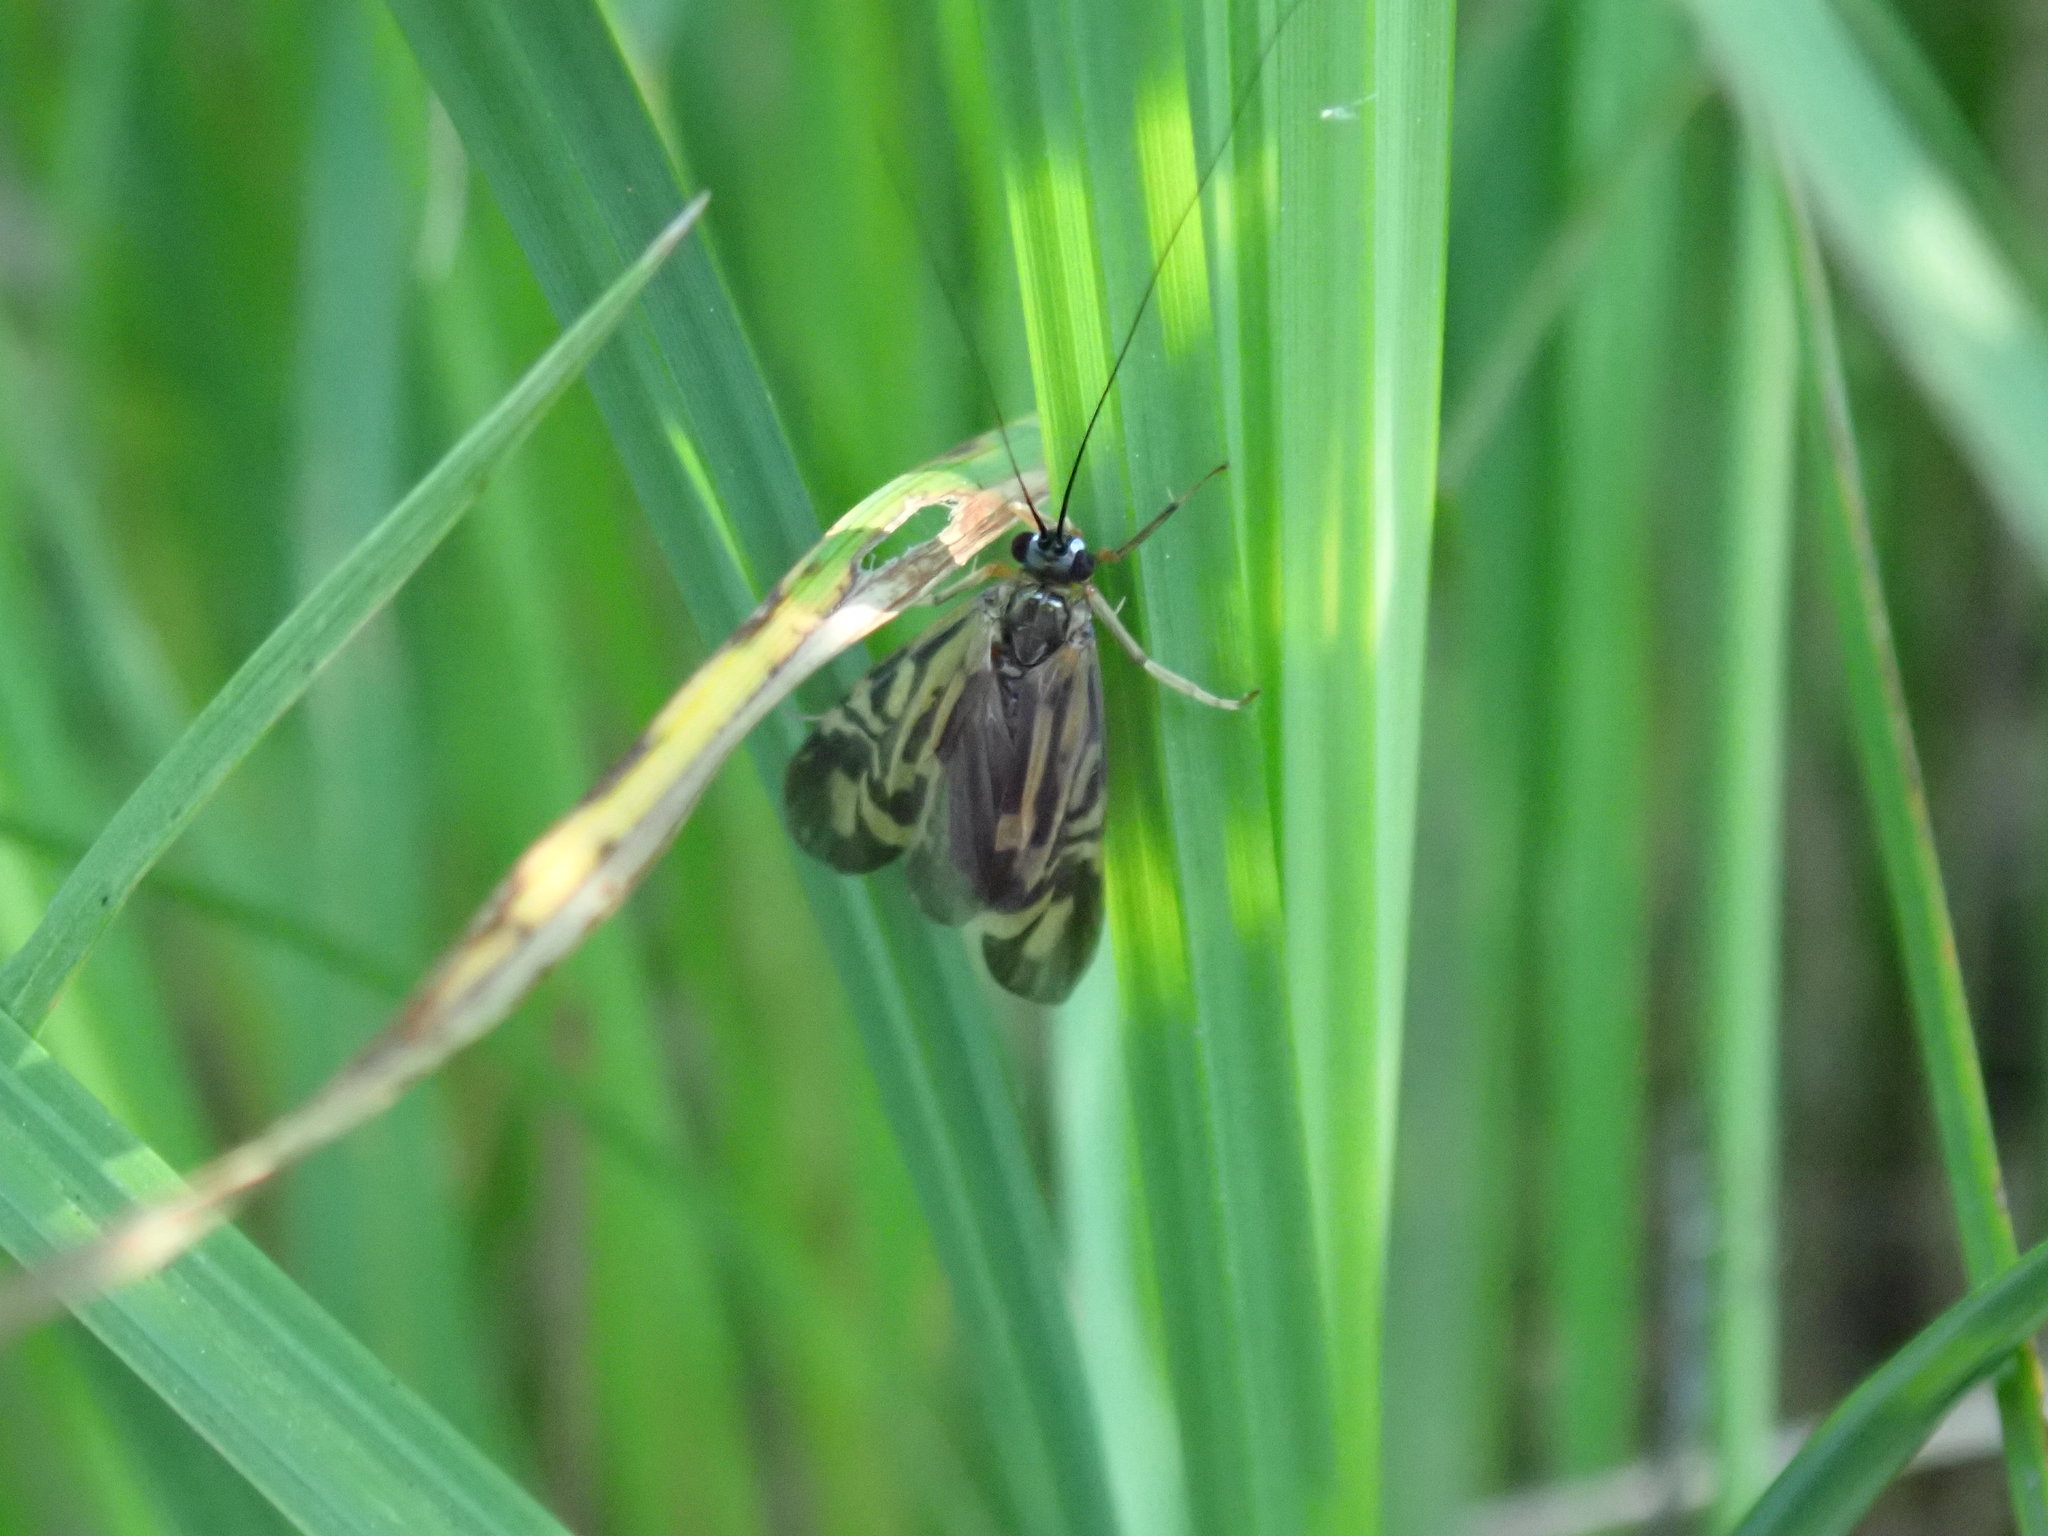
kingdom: Animalia
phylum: Arthropoda
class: Insecta
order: Trichoptera
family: Hydropsychidae
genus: Macrostemum
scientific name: Macrostemum zebratum
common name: Zebra caddisfly
